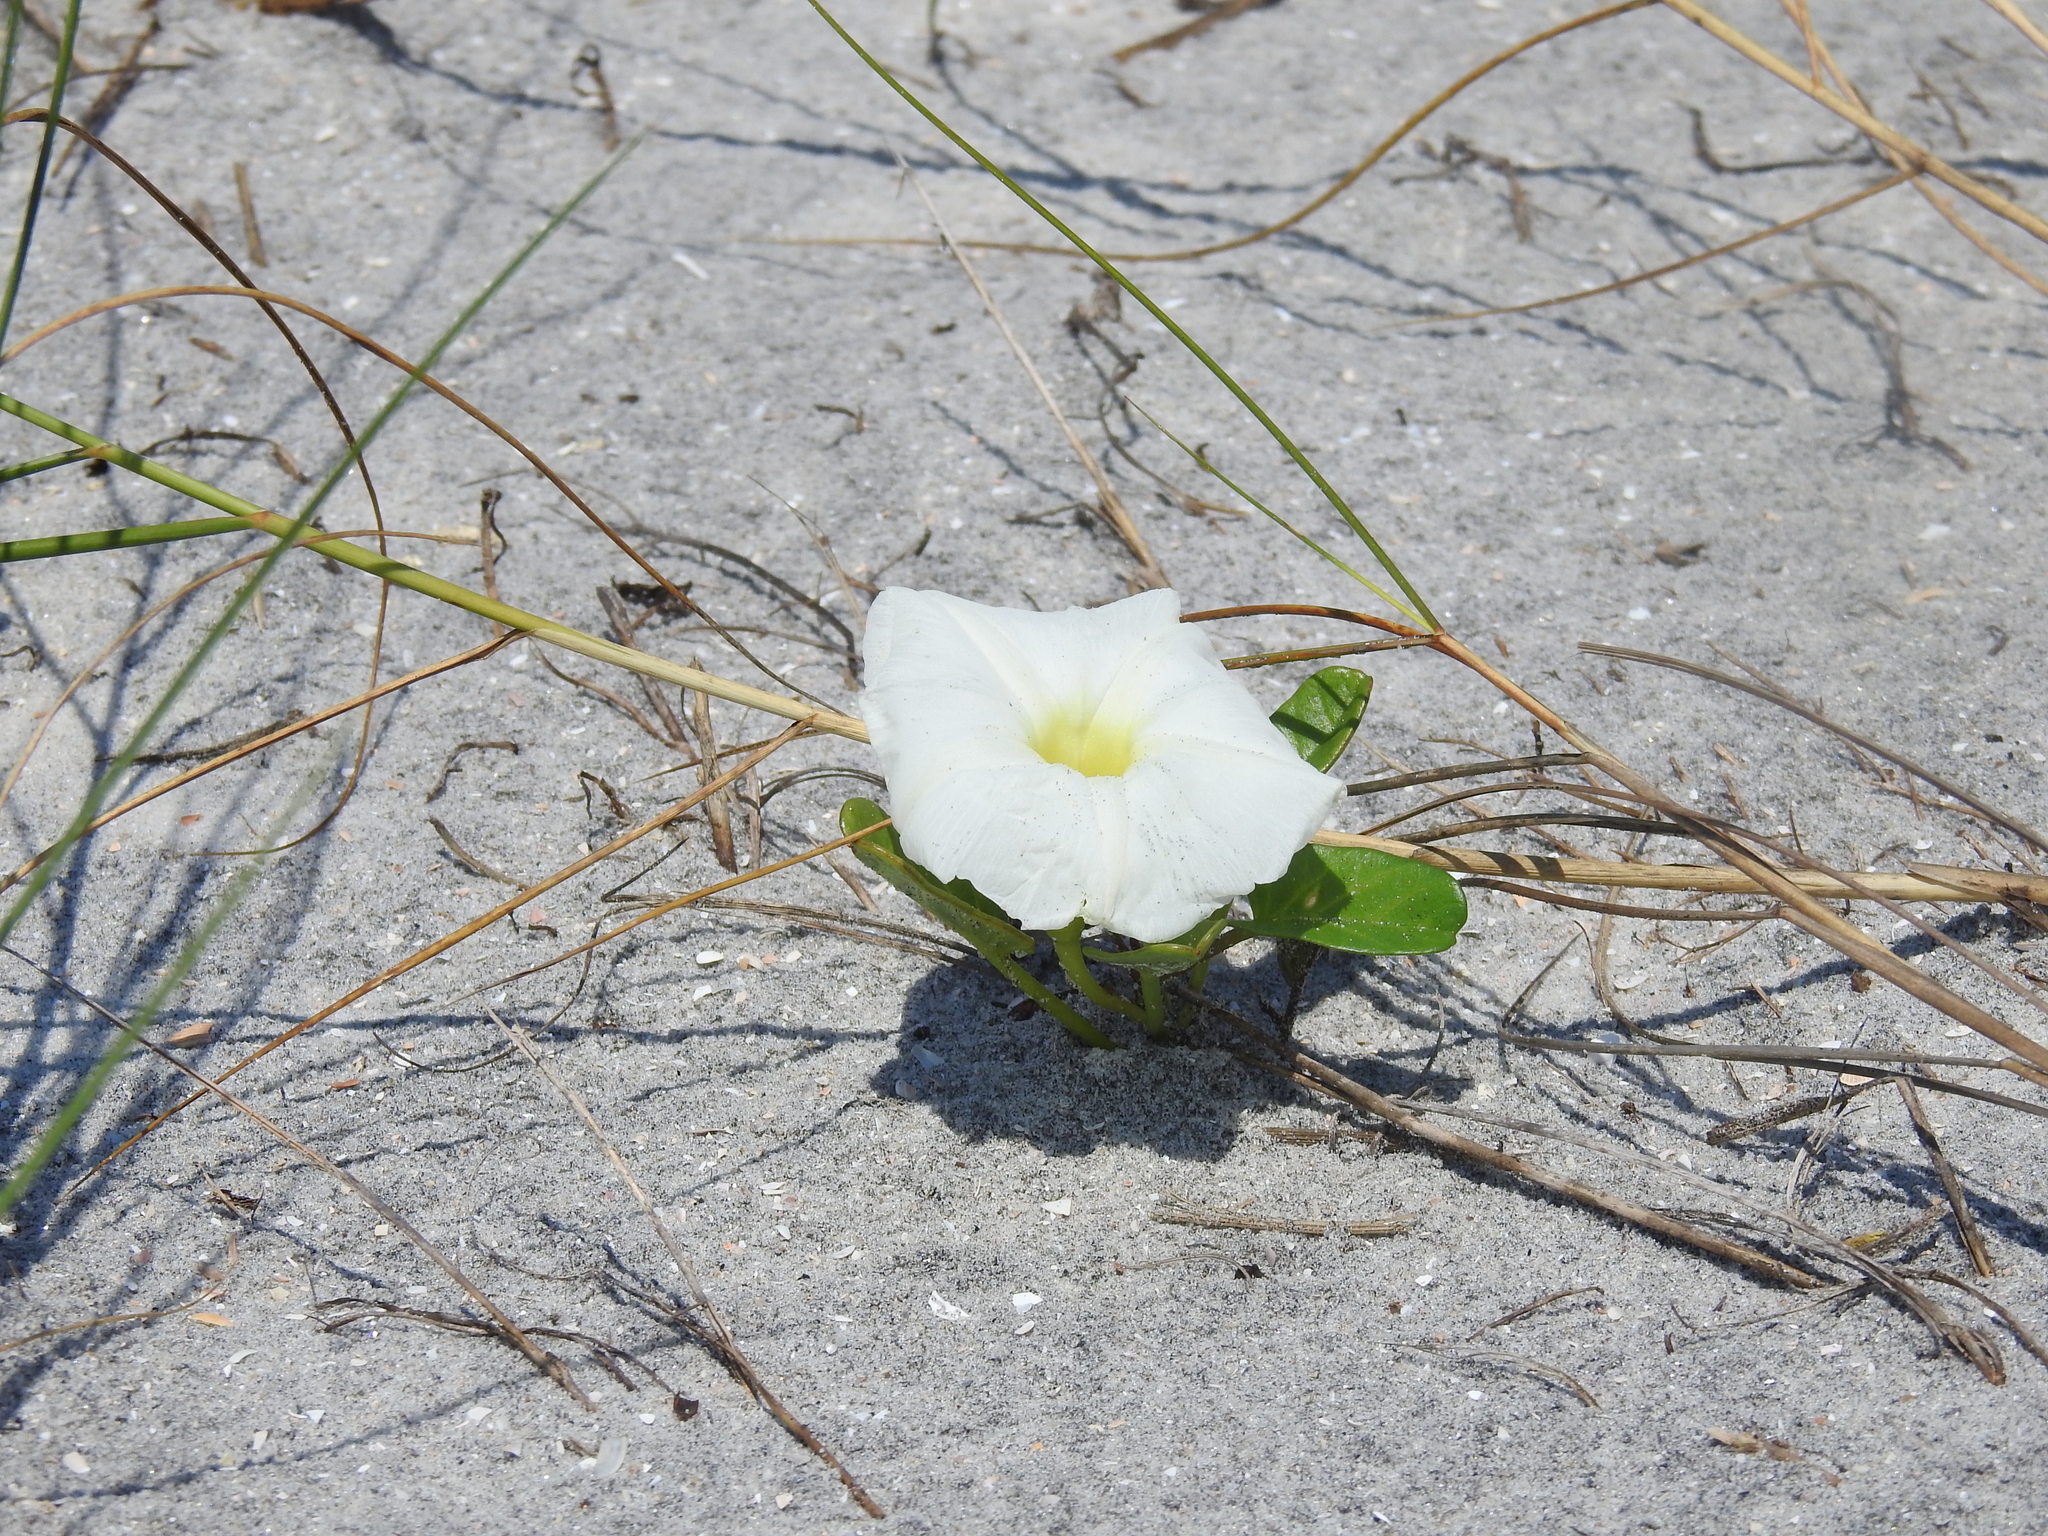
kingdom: Plantae
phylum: Tracheophyta
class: Magnoliopsida
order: Solanales
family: Convolvulaceae
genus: Ipomoea
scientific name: Ipomoea imperati
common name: Fiddle-leaf morning-glory
